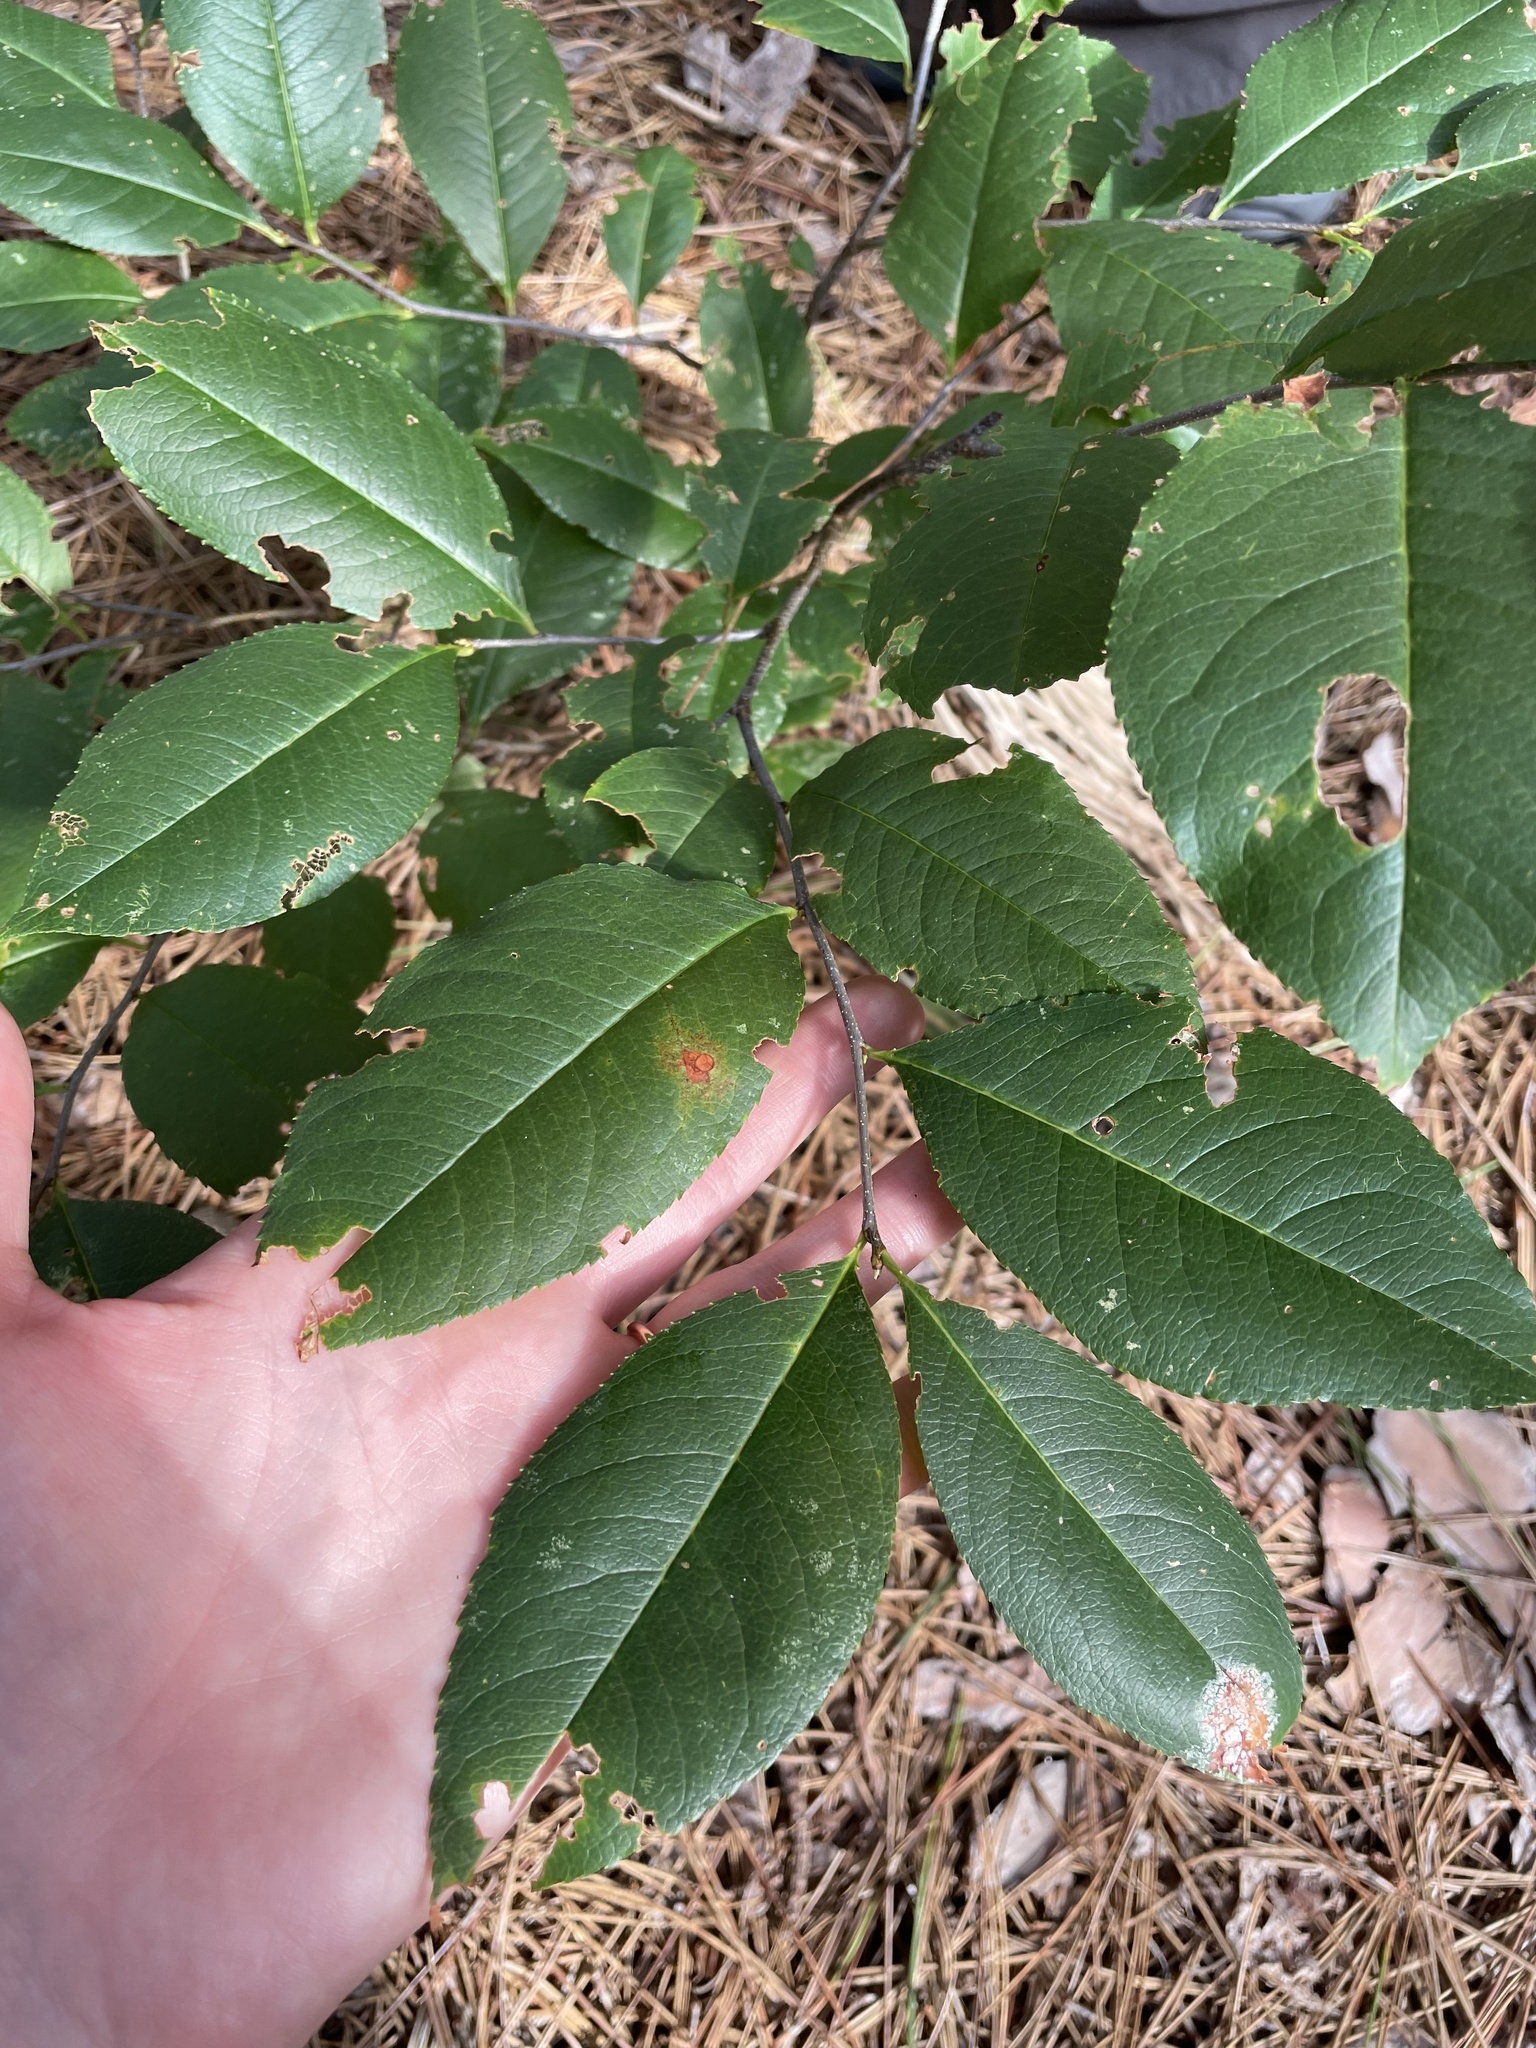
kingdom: Plantae
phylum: Tracheophyta
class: Magnoliopsida
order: Rosales
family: Rosaceae
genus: Prunus
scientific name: Prunus serotina
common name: Black cherry
